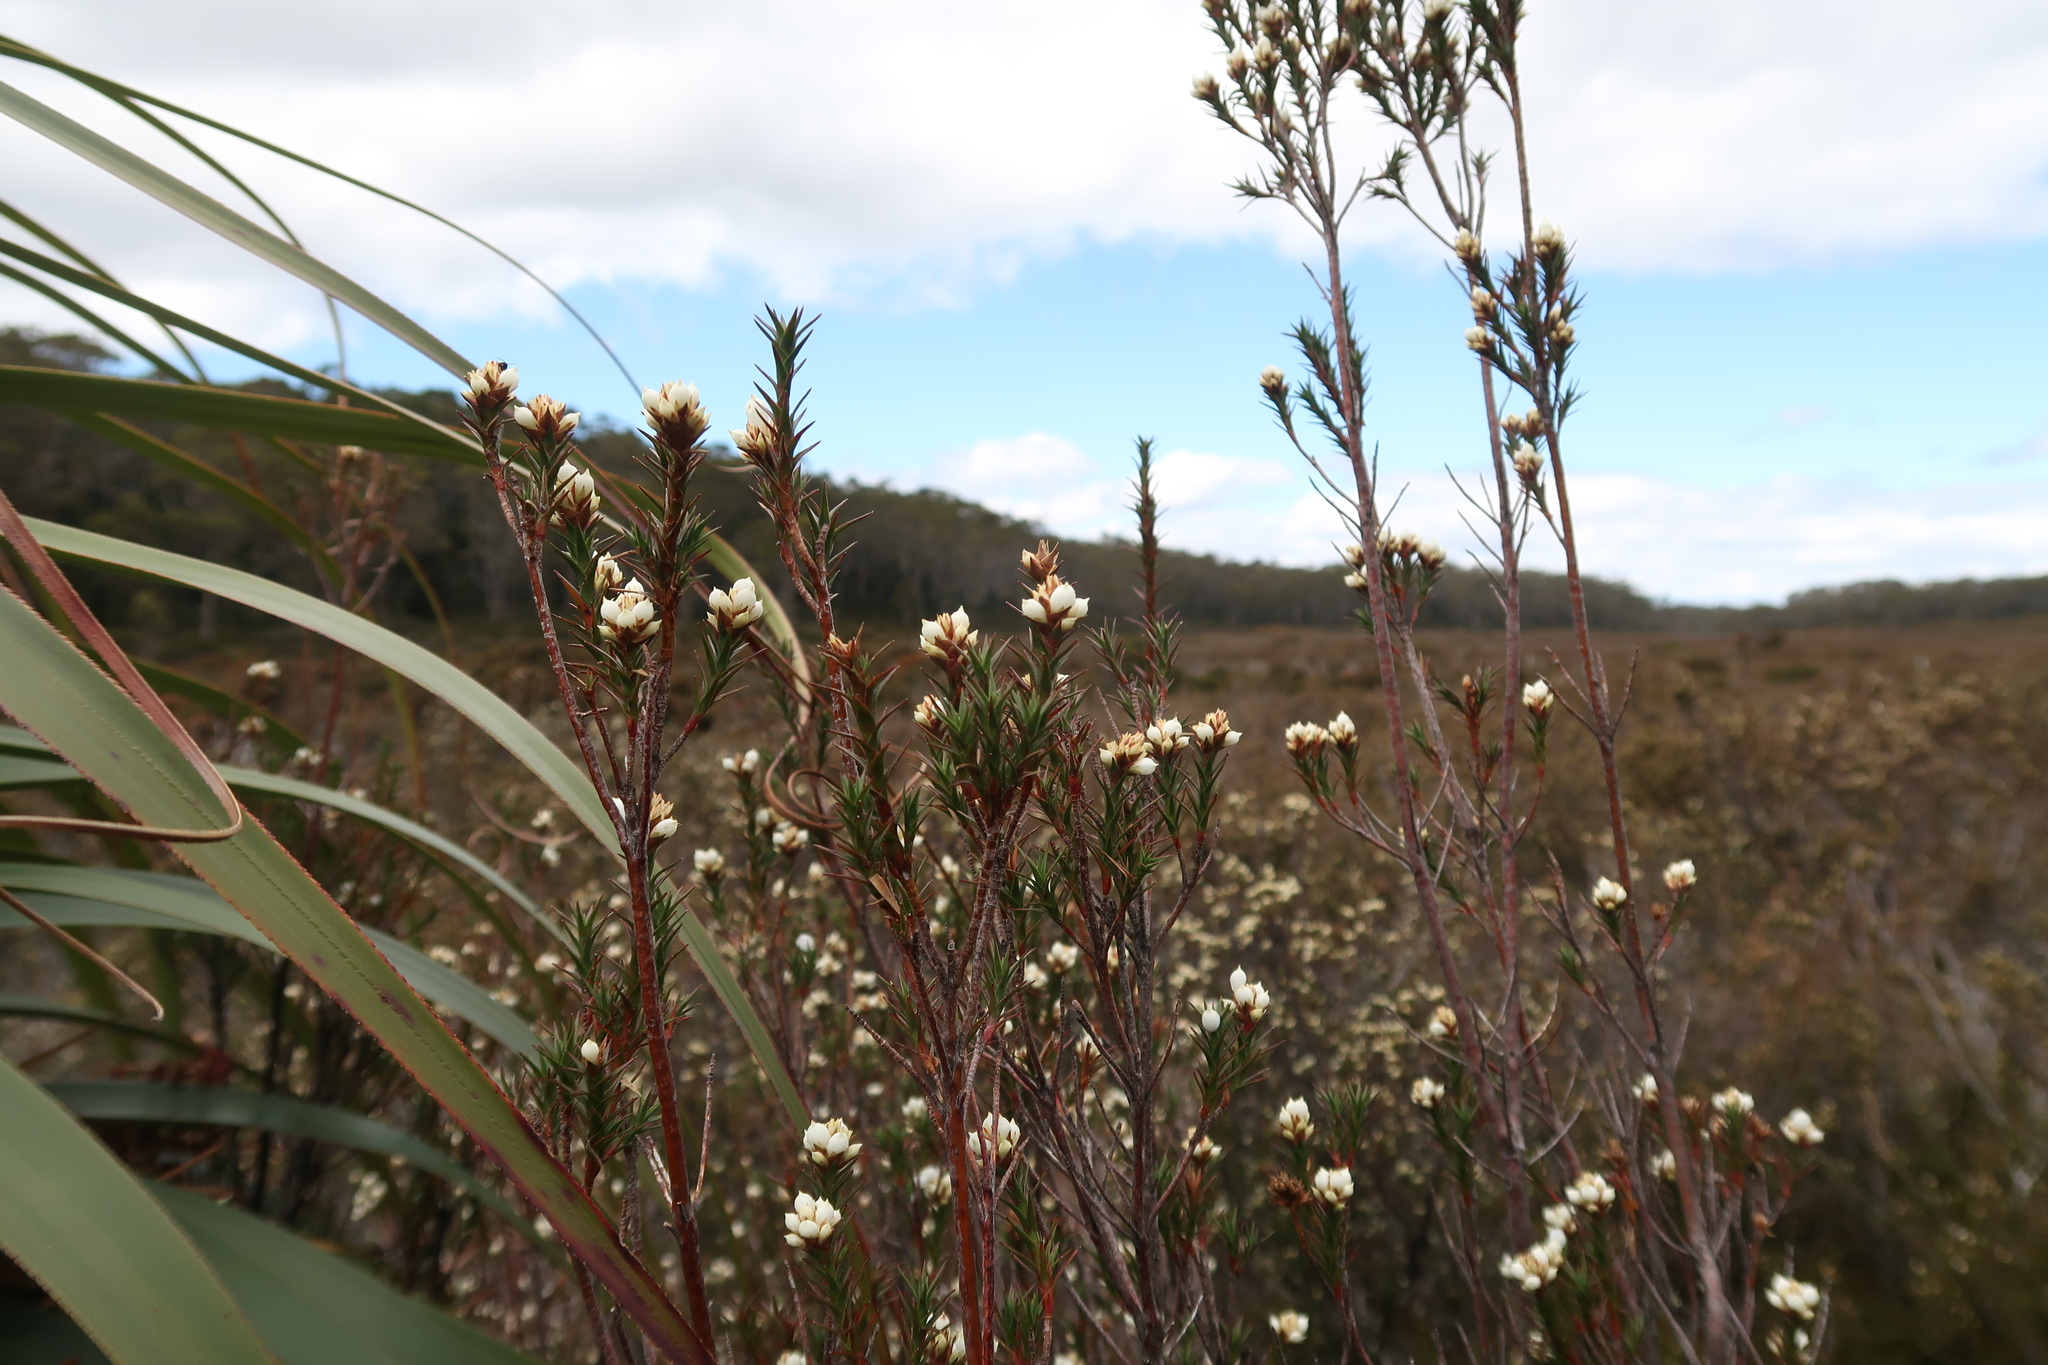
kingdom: Plantae
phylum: Tracheophyta
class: Magnoliopsida
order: Ericales
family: Ericaceae
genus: Dracophyllum
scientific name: Dracophyllum laciniatum
